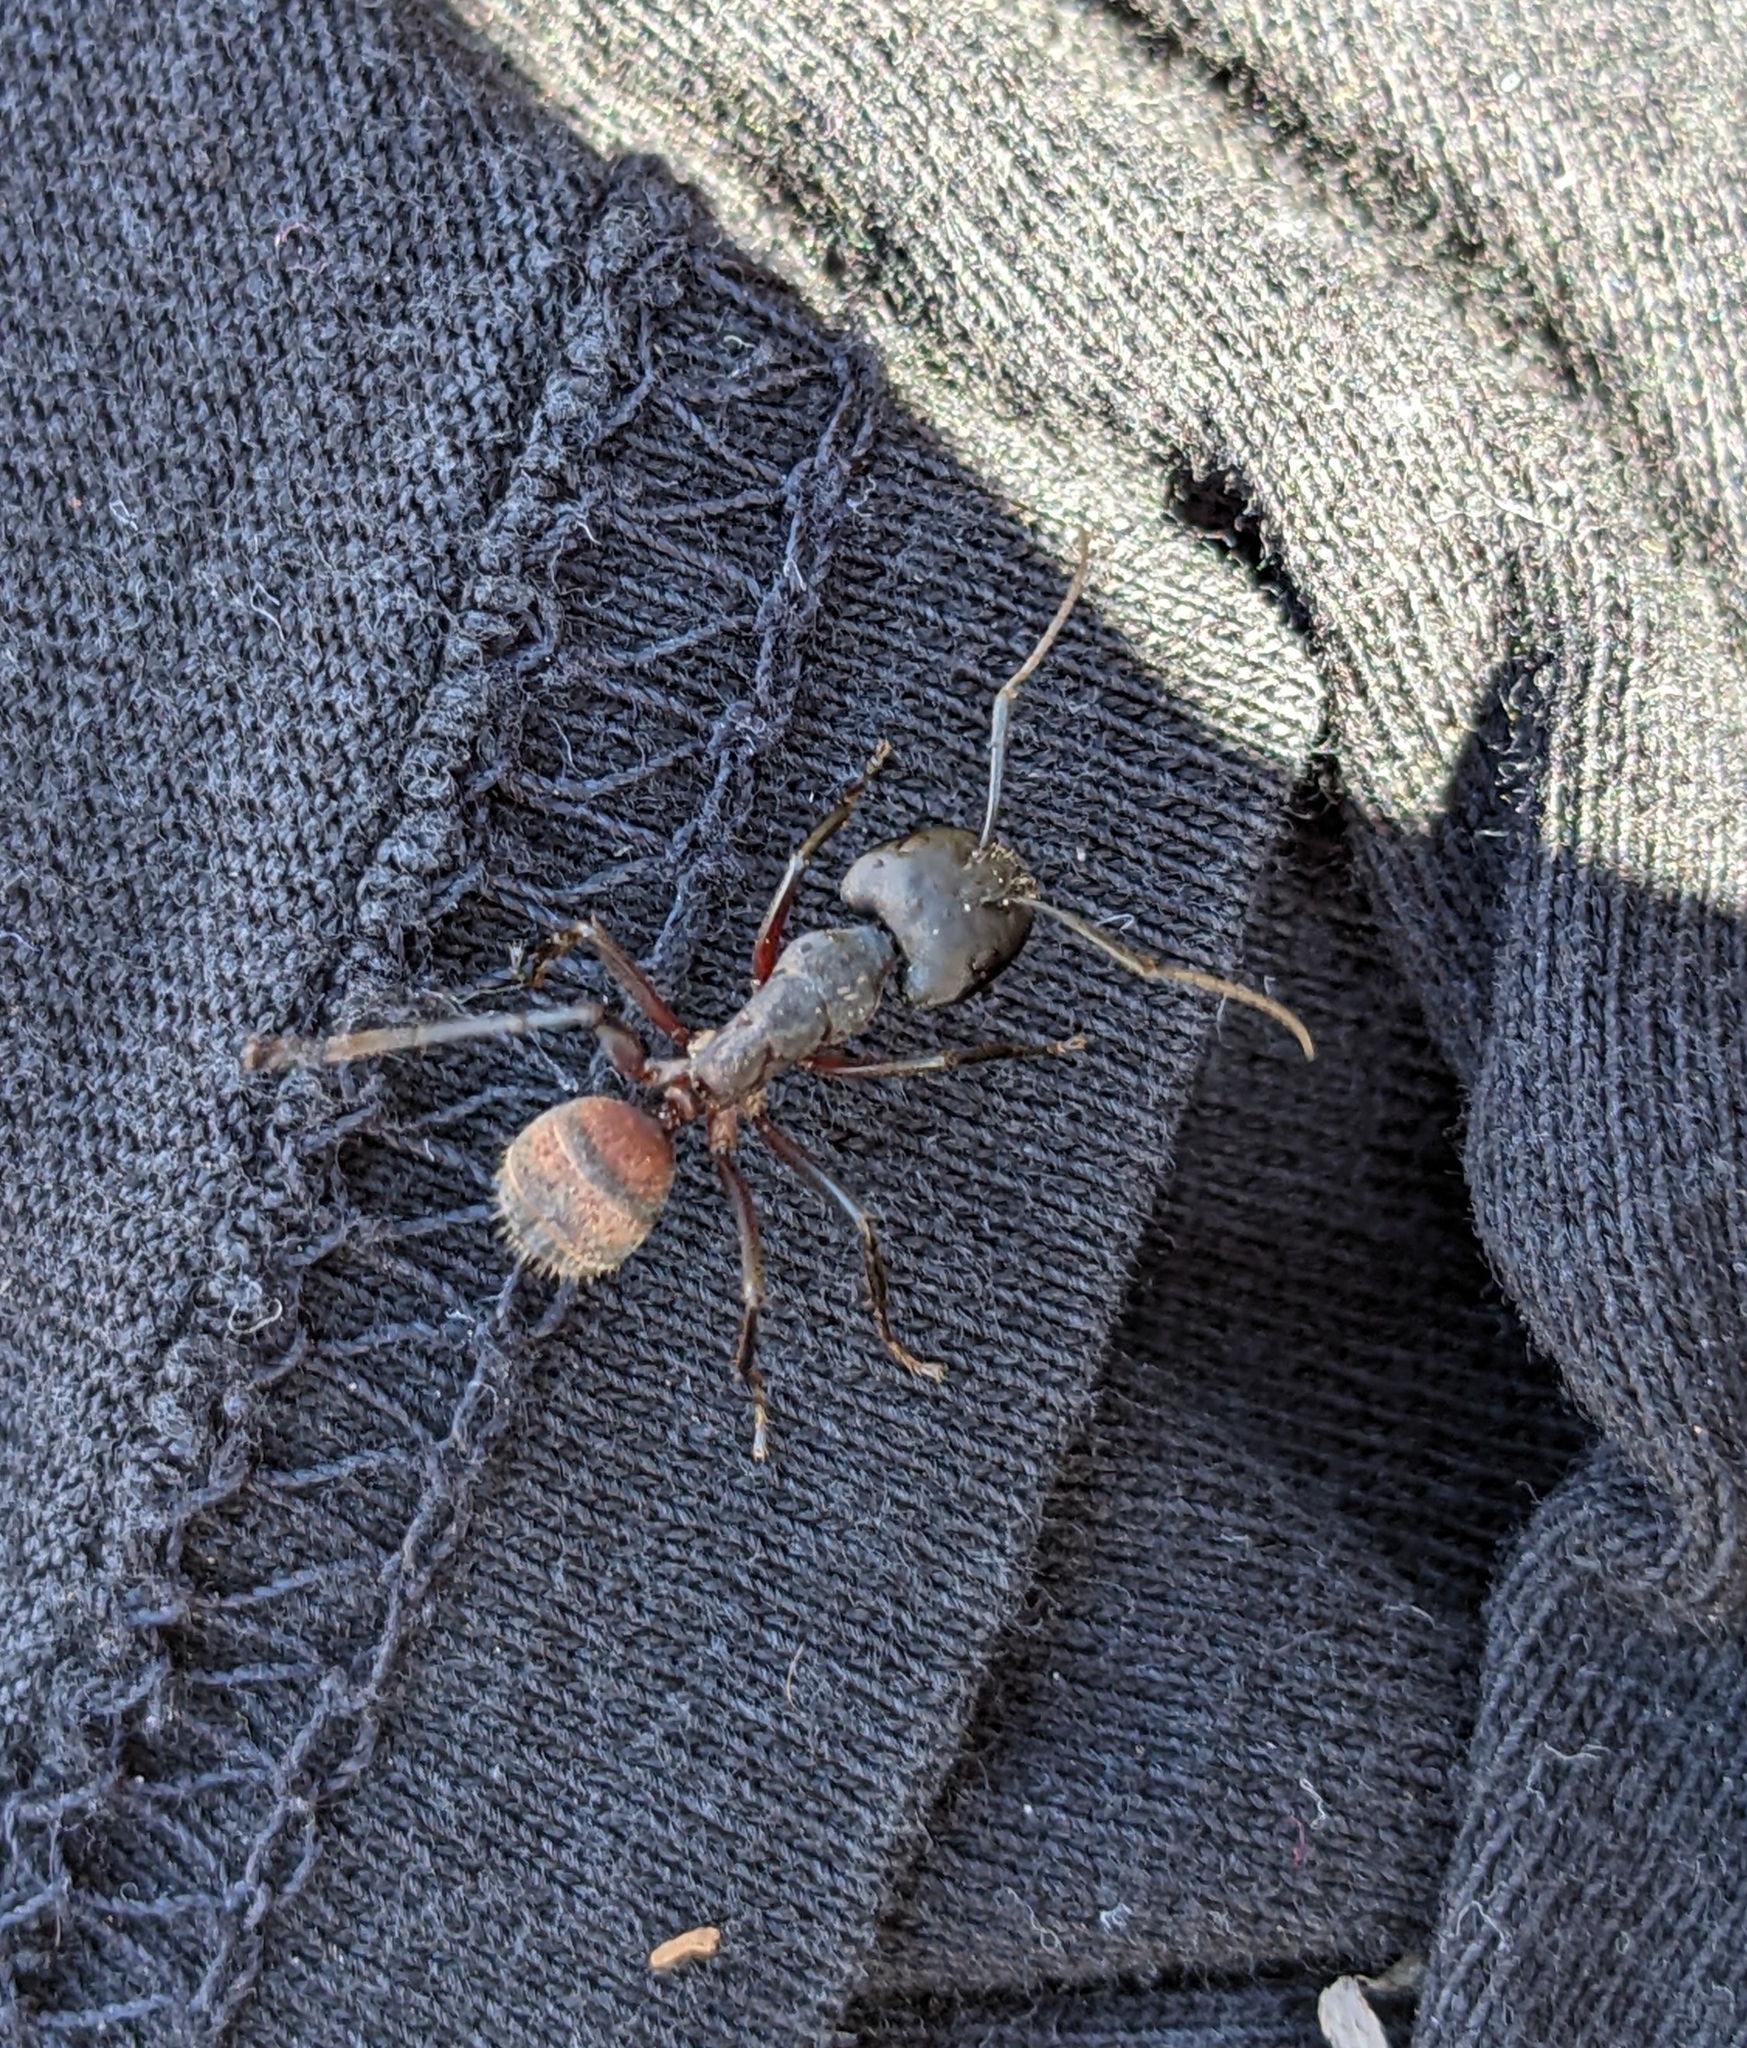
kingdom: Animalia
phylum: Arthropoda
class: Insecta
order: Hymenoptera
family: Formicidae
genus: Camponotus
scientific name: Camponotus cruentatus
